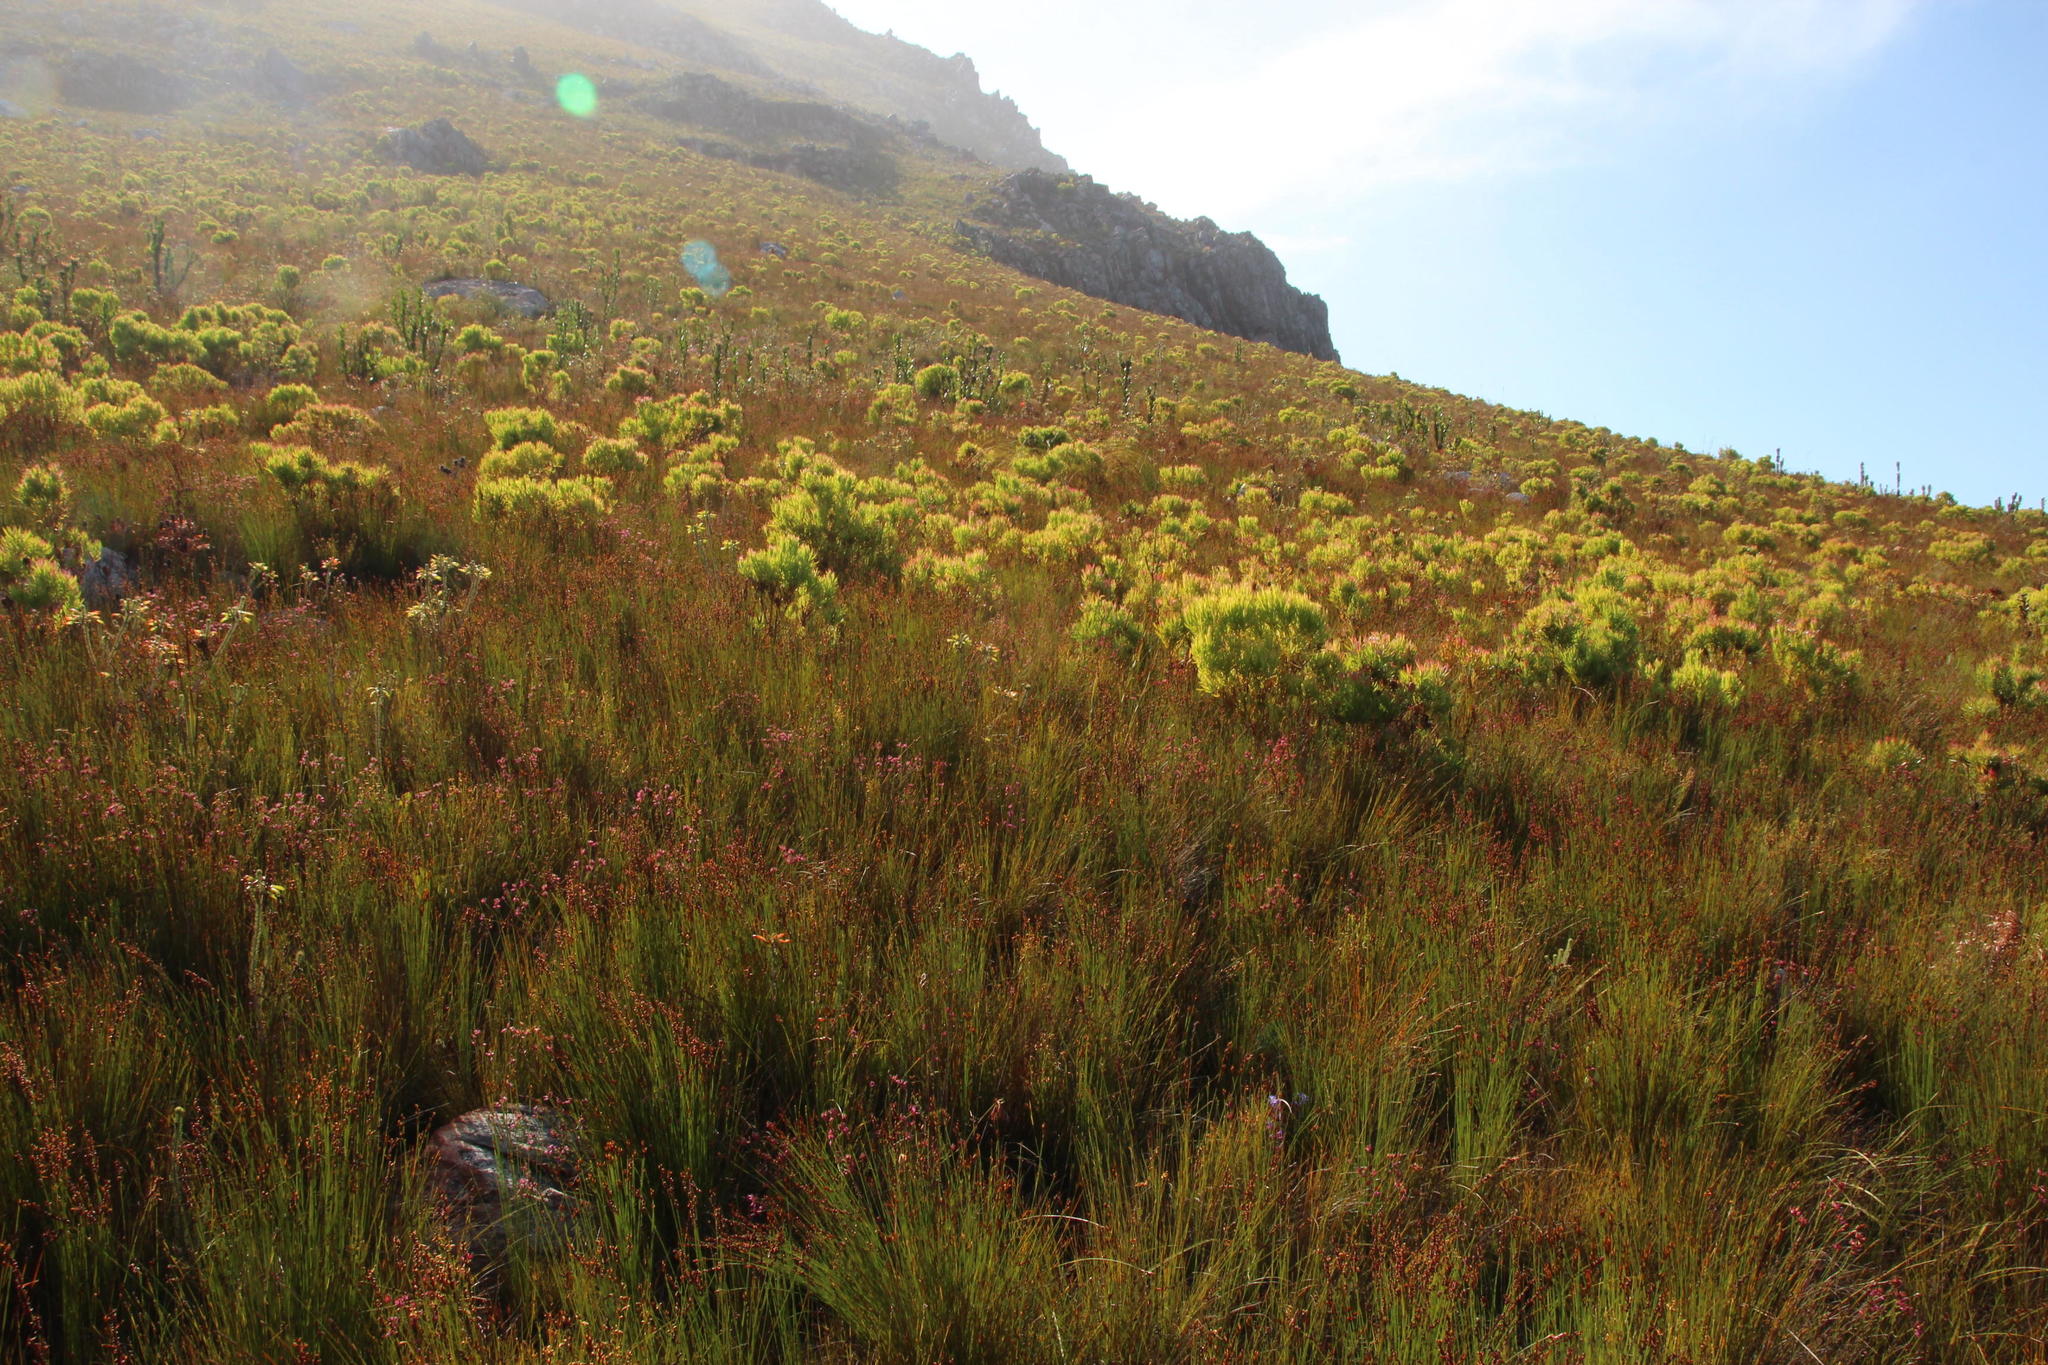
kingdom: Plantae
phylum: Tracheophyta
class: Magnoliopsida
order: Ericales
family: Ericaceae
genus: Erica
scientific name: Erica cristata
